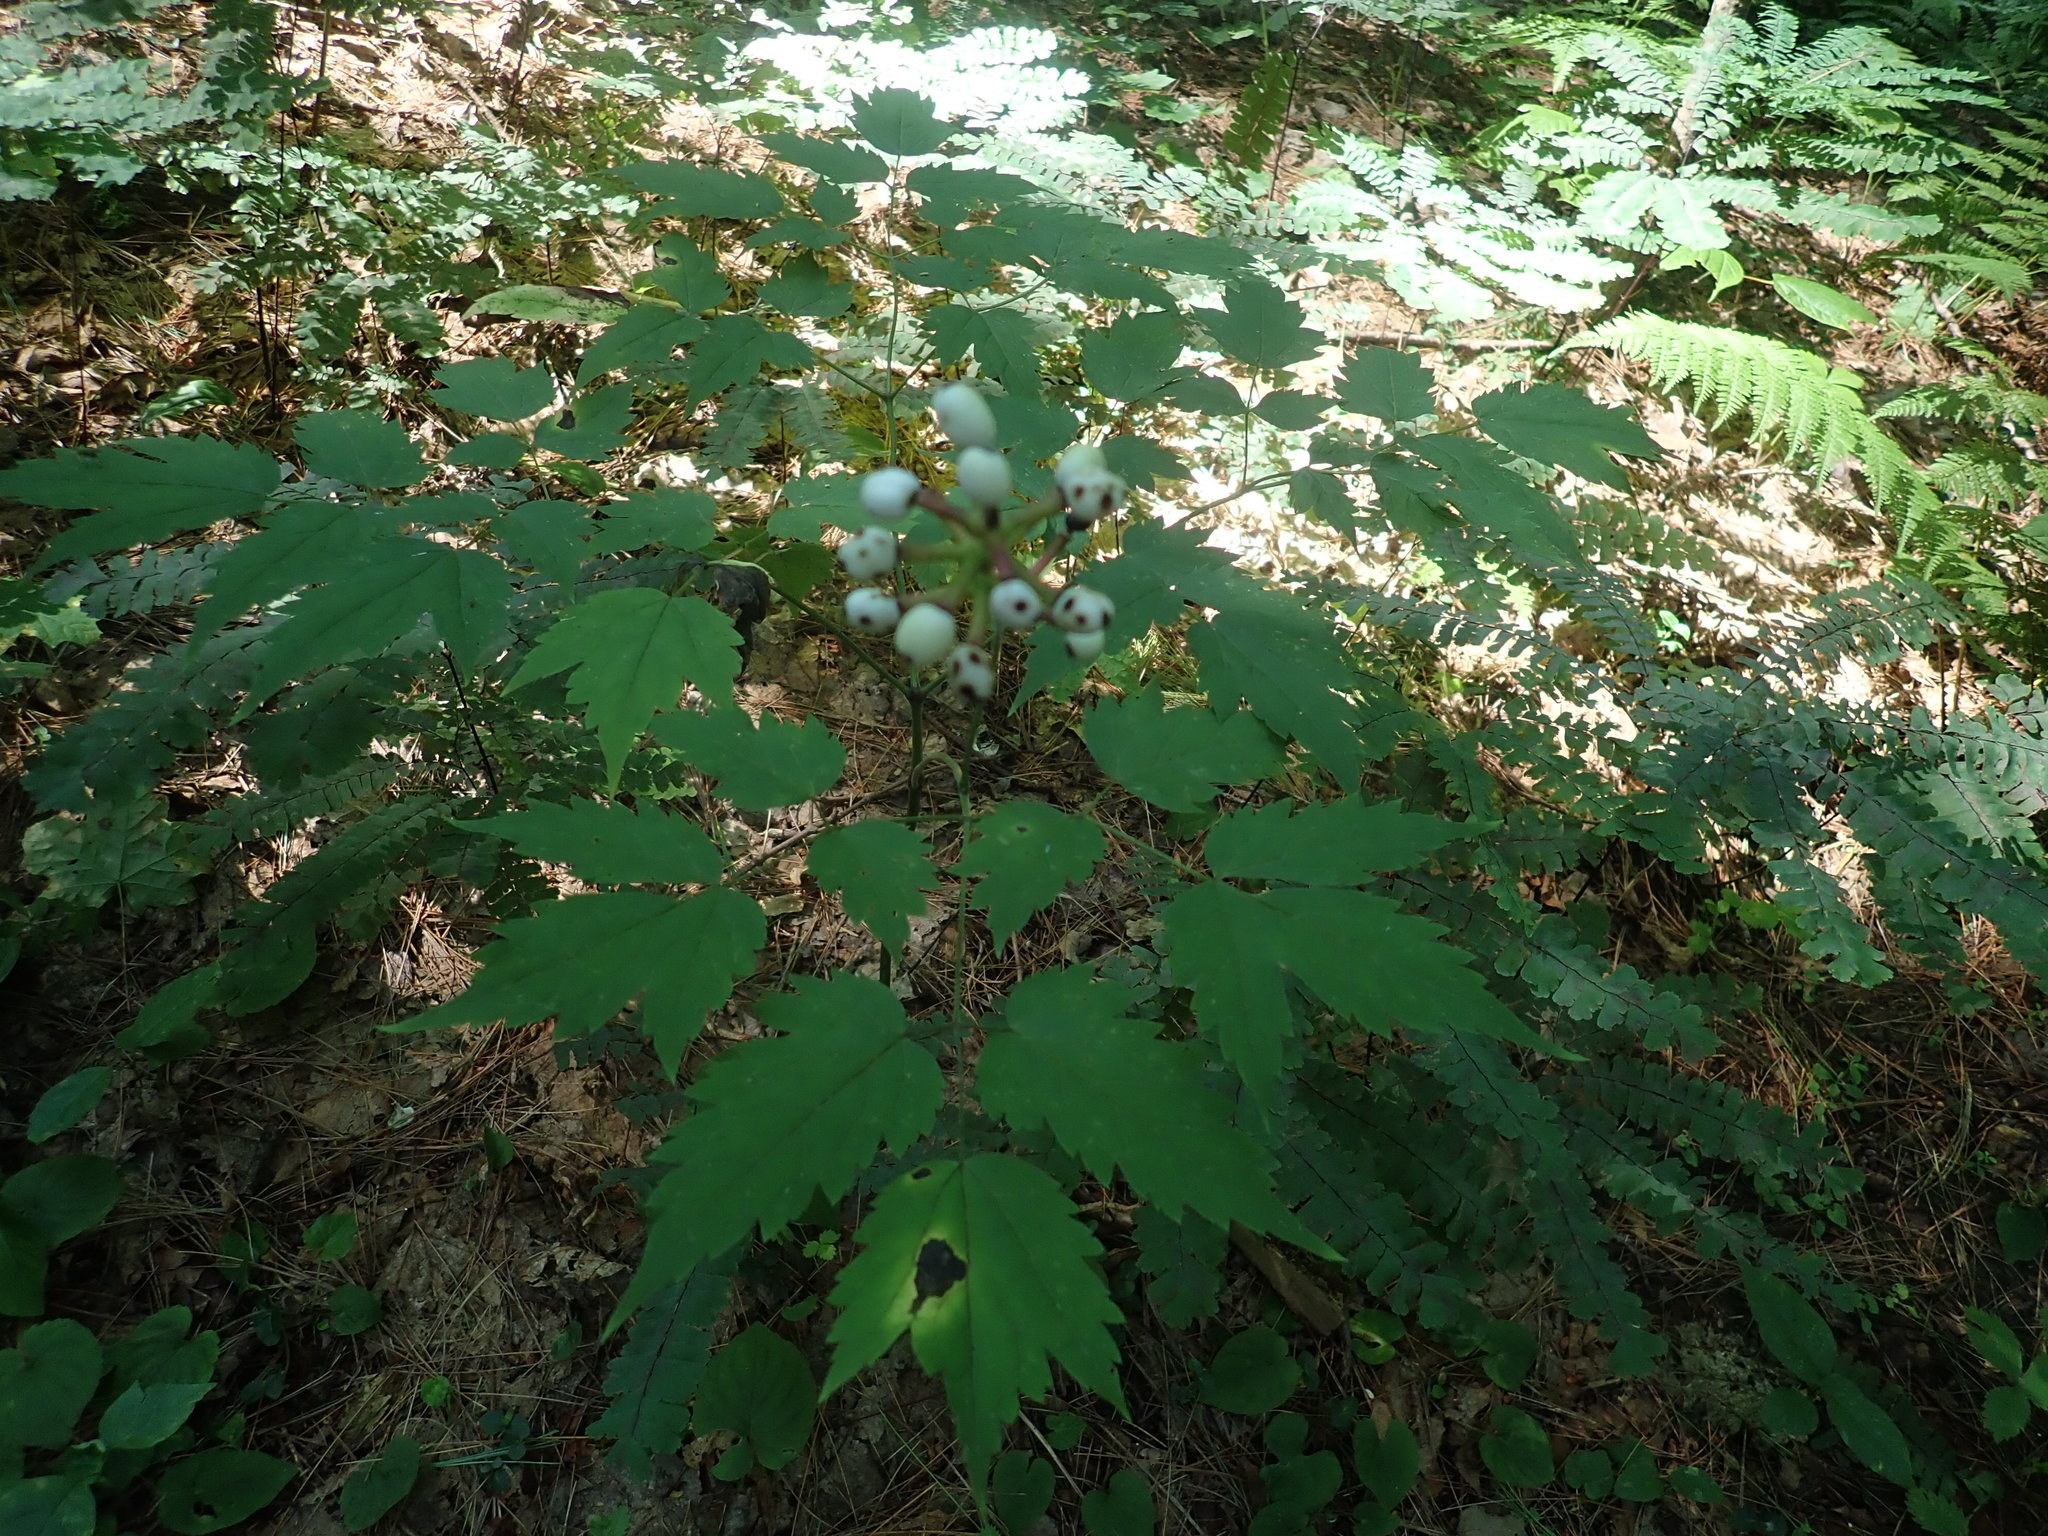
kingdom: Plantae
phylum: Tracheophyta
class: Magnoliopsida
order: Ranunculales
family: Ranunculaceae
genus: Actaea
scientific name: Actaea pachypoda
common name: Doll's-eyes
